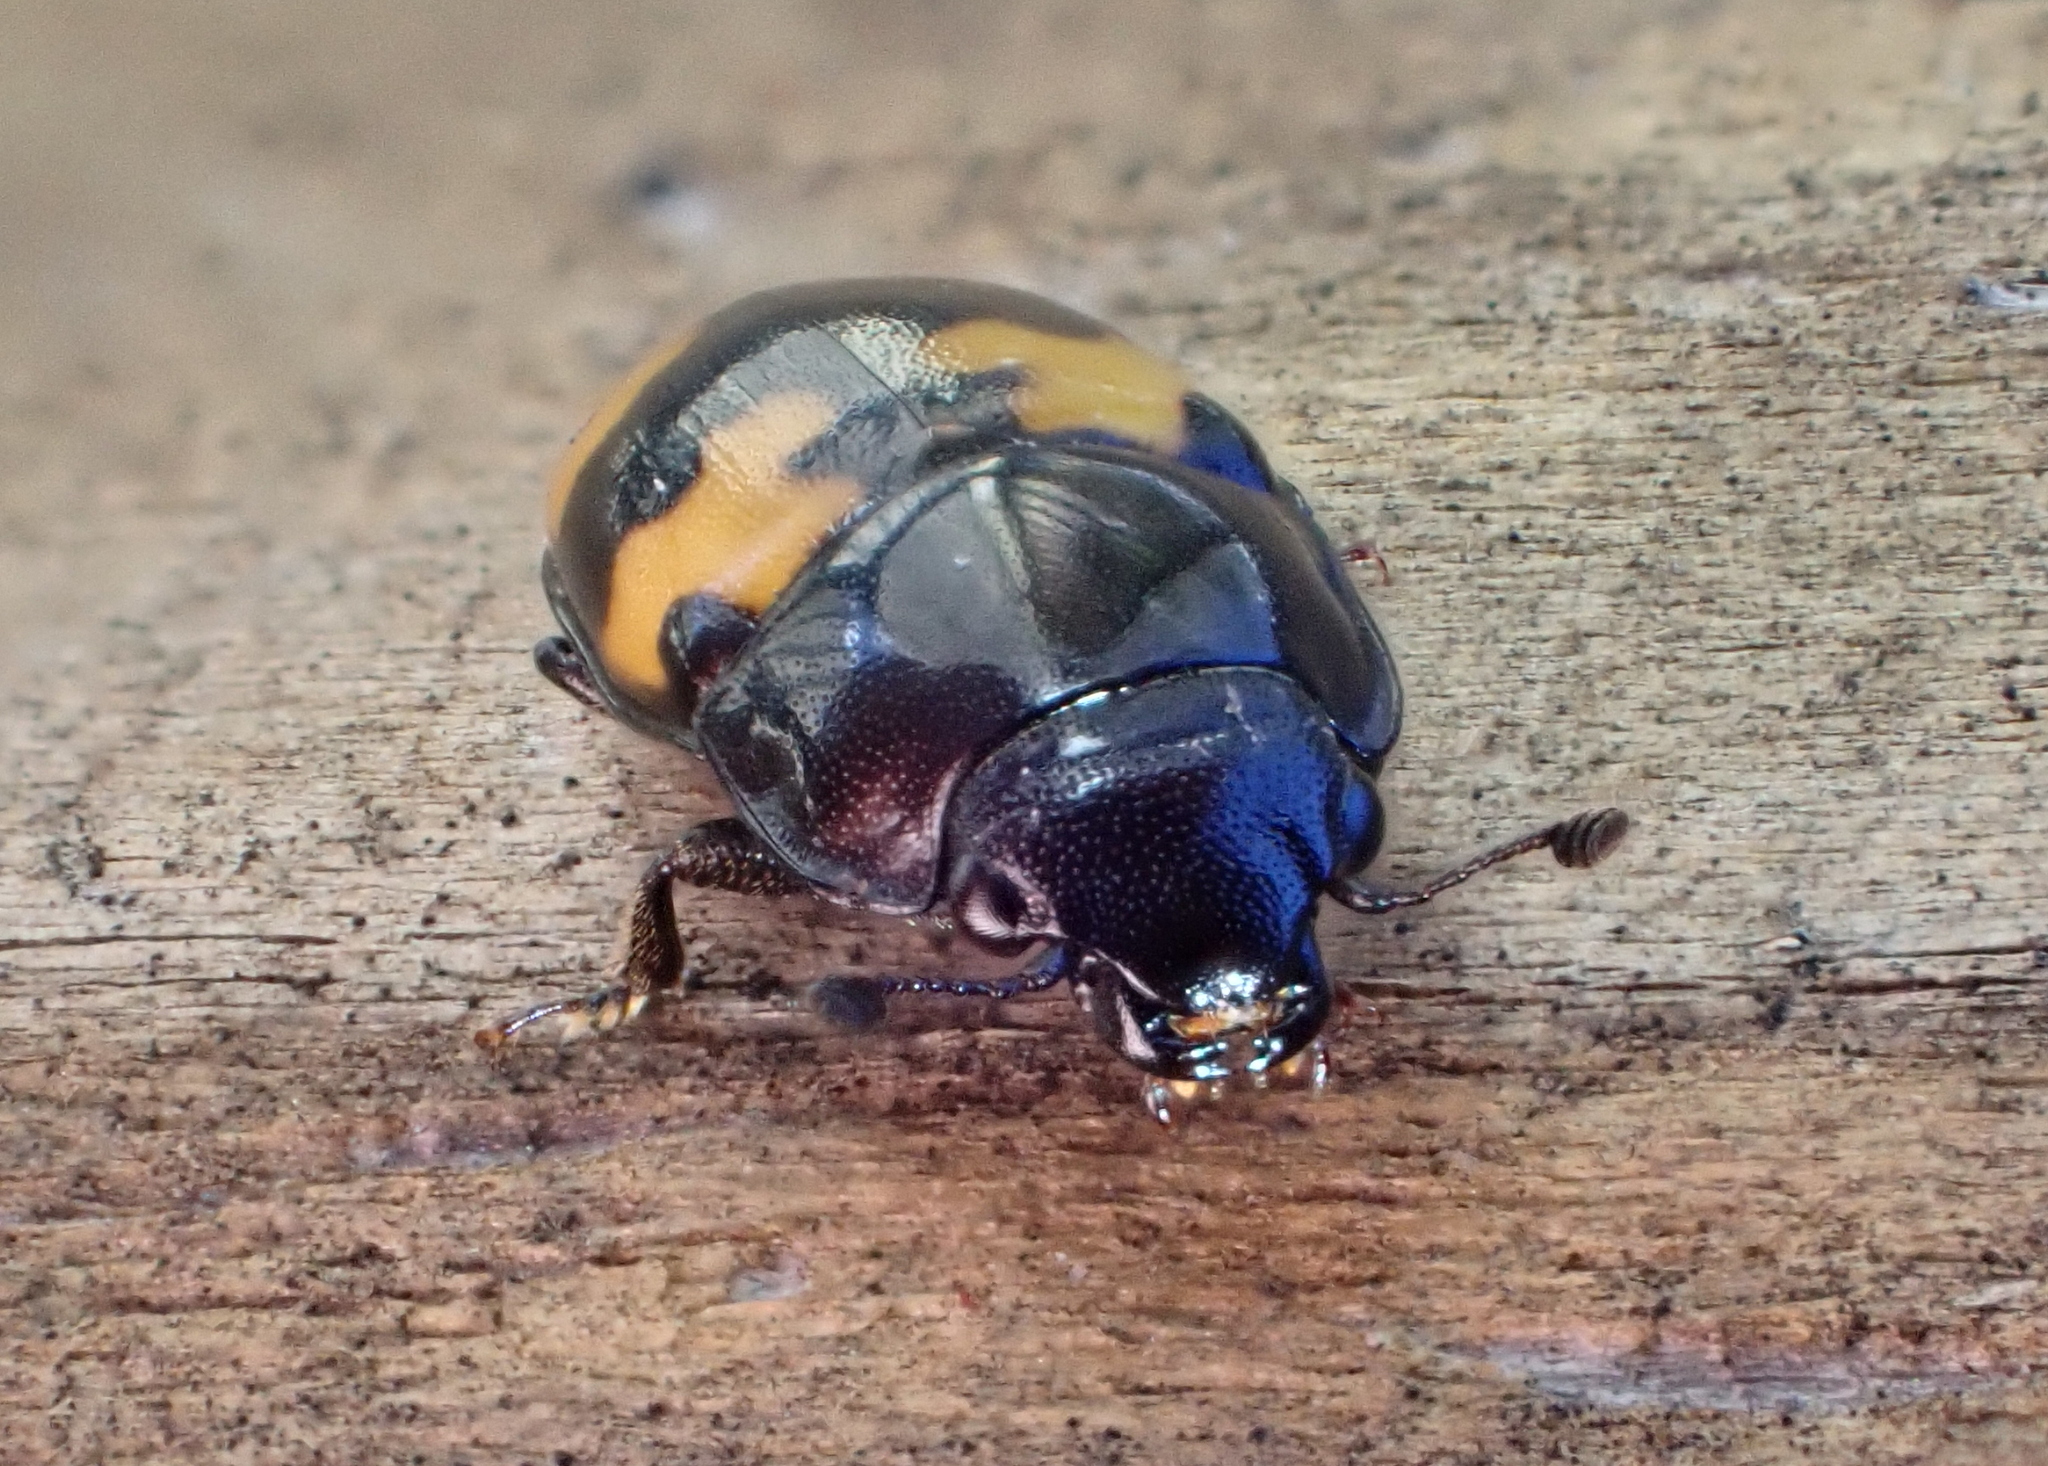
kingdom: Animalia
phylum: Arthropoda
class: Insecta
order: Coleoptera
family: Nitidulidae
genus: Glischrochilus
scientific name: Glischrochilus fasciatus
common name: Picnic beetle
